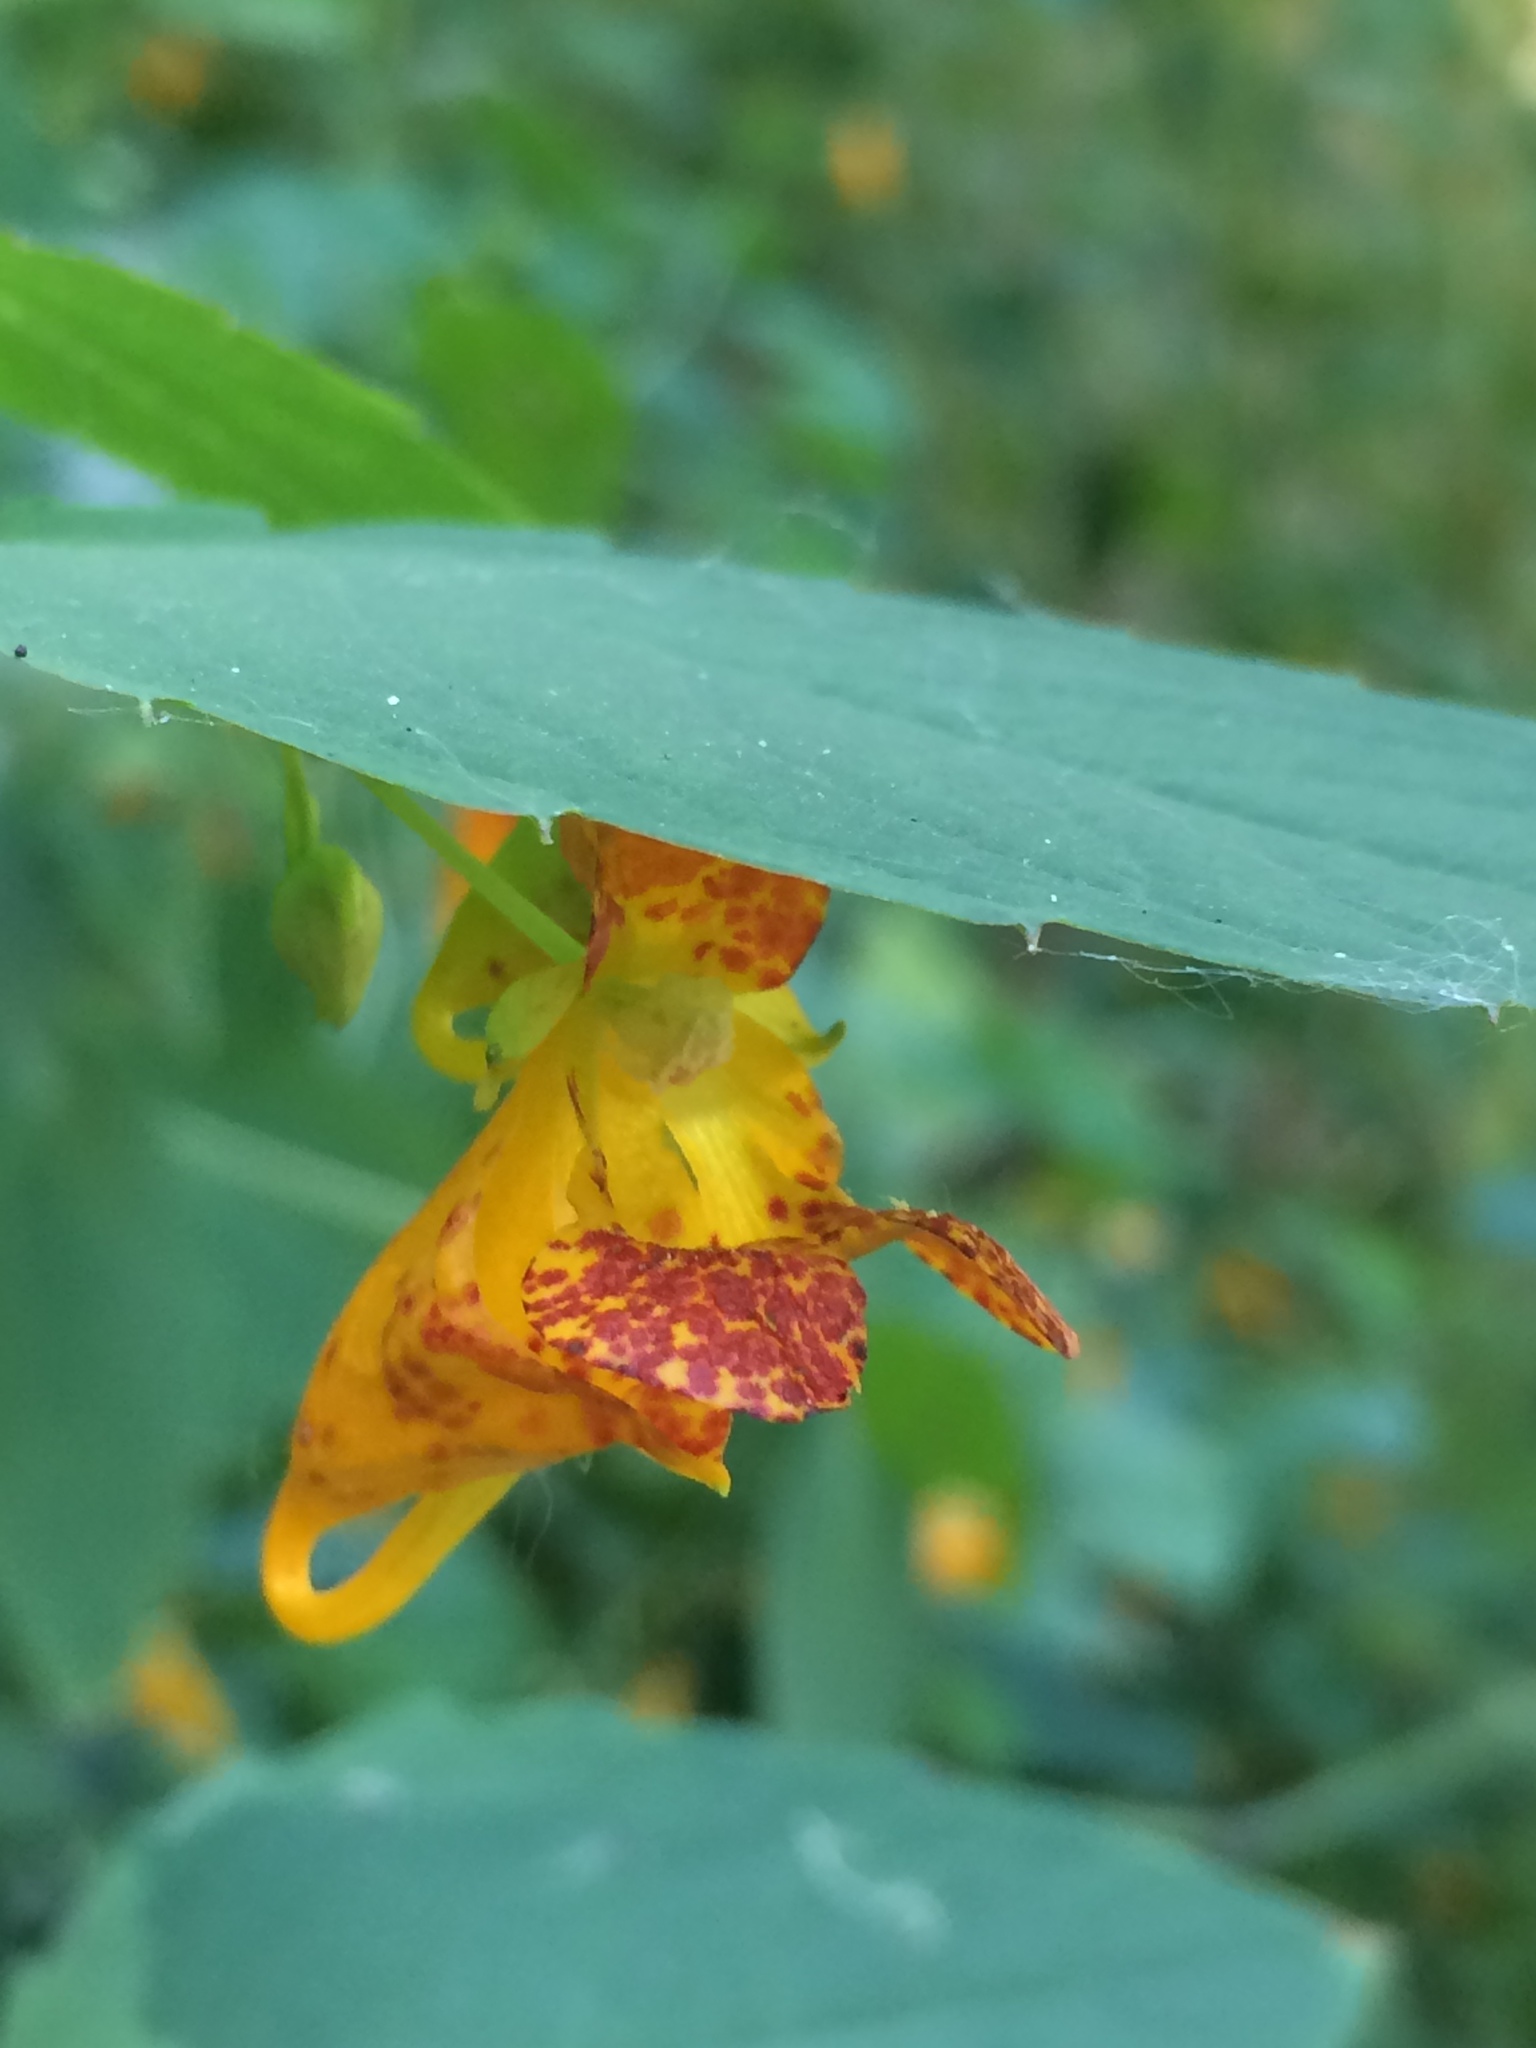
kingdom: Plantae
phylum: Tracheophyta
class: Magnoliopsida
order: Ericales
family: Balsaminaceae
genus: Impatiens
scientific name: Impatiens capensis
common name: Orange balsam
